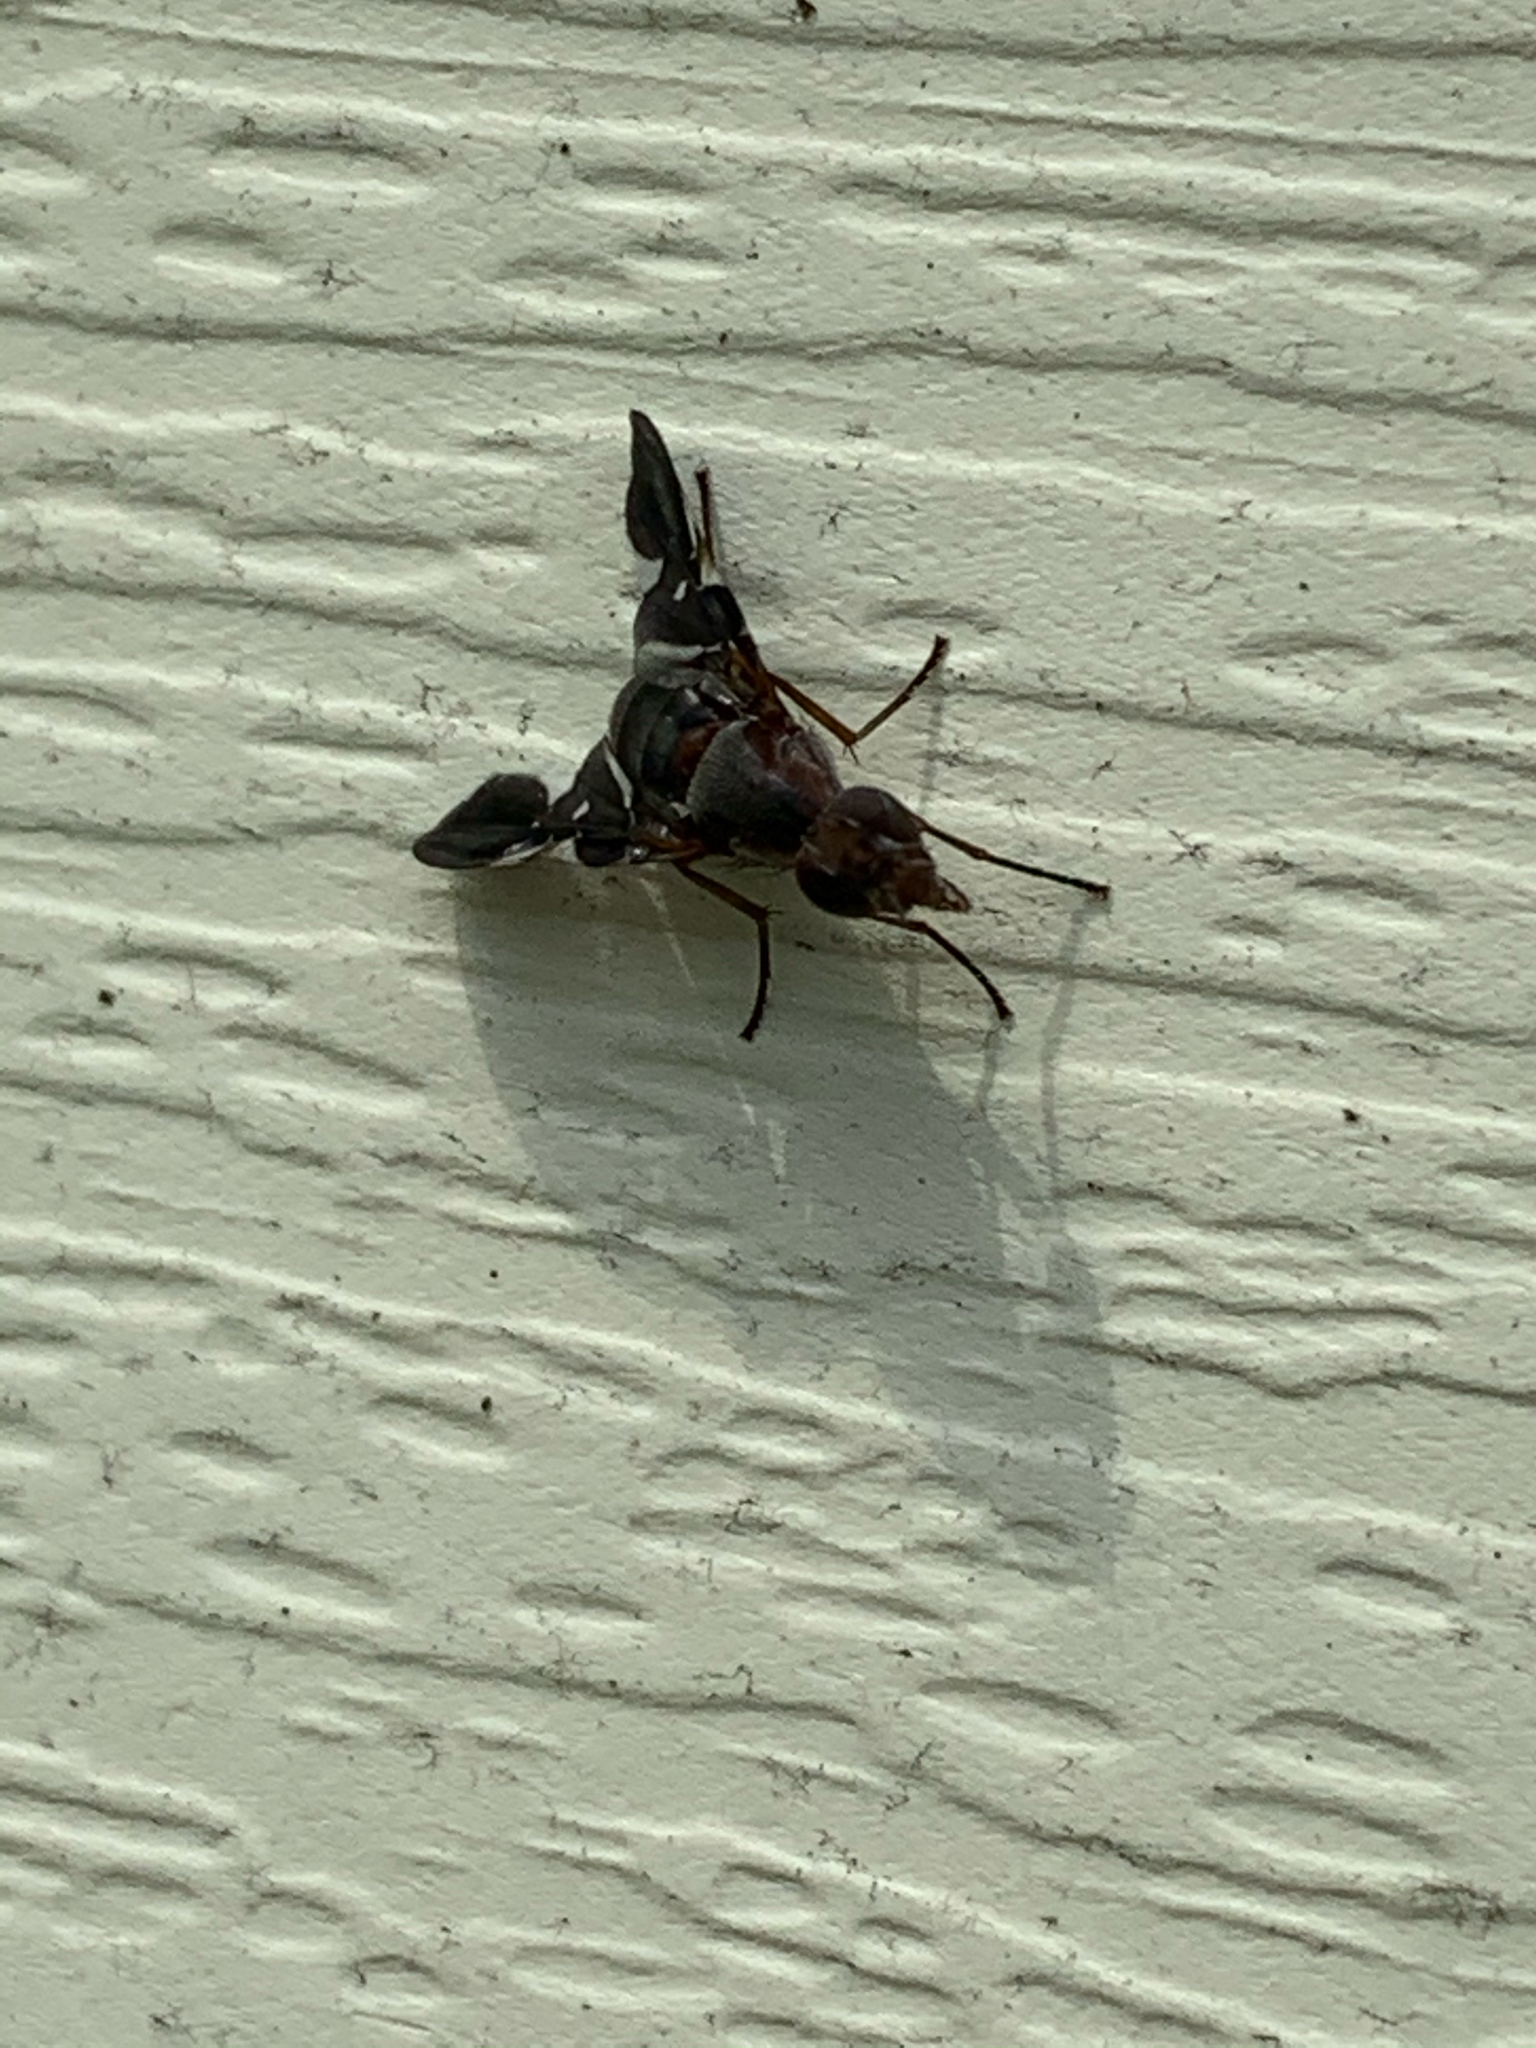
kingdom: Animalia
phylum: Arthropoda
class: Insecta
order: Diptera
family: Ulidiidae
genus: Delphinia
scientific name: Delphinia picta
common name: Common picture-winged fly
